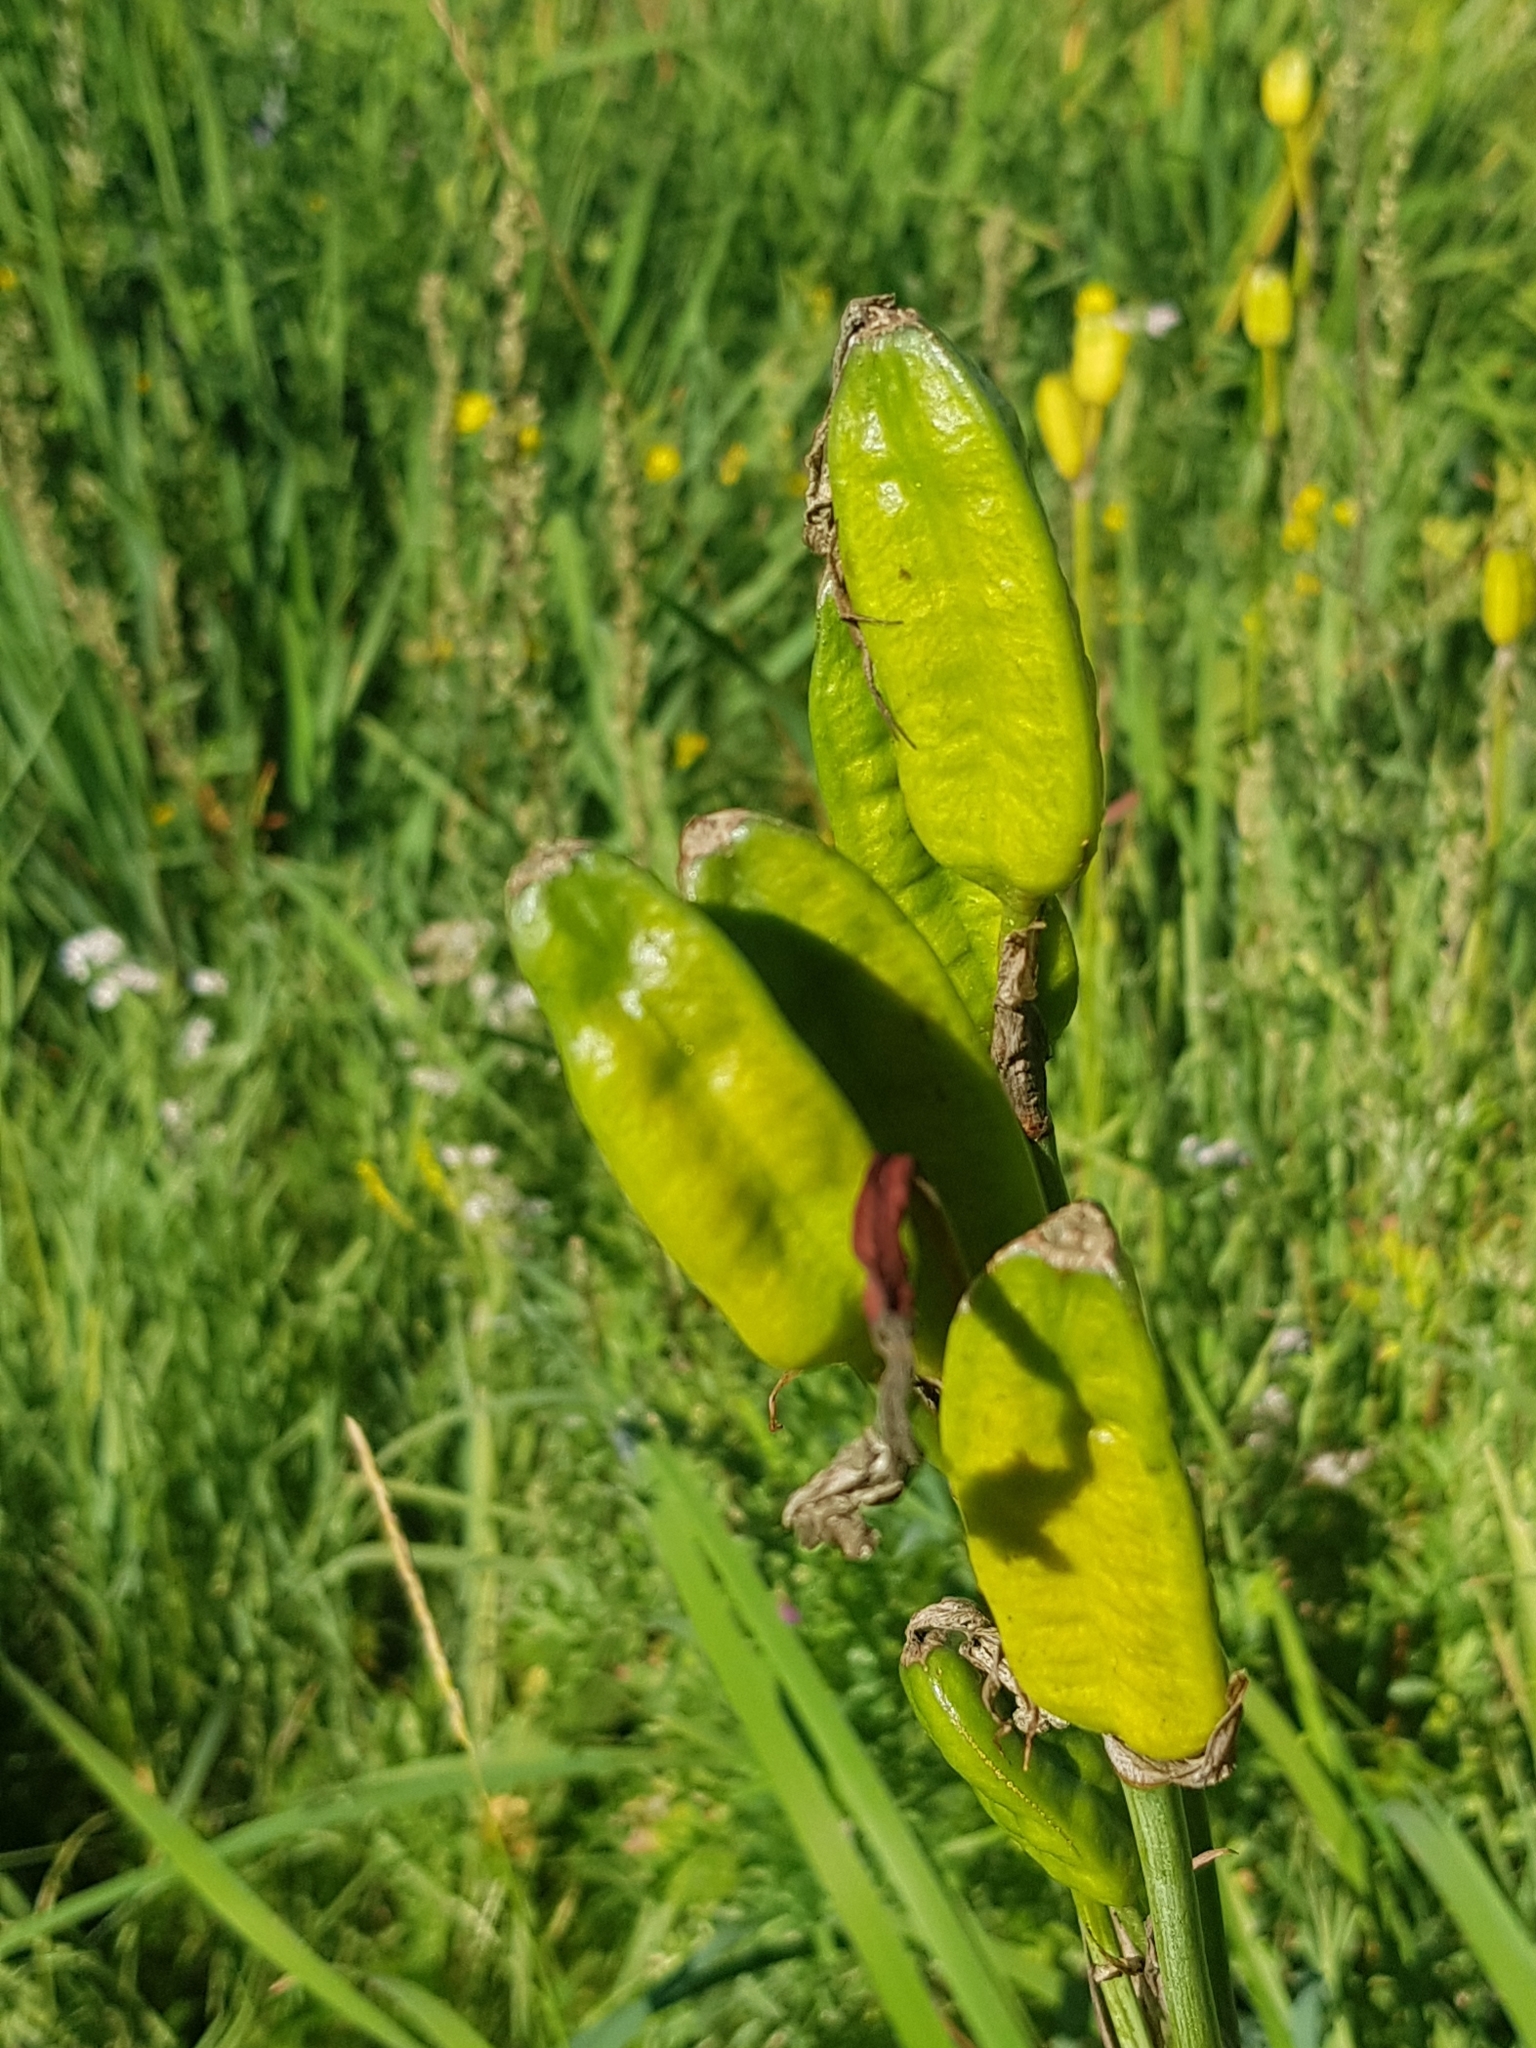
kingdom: Plantae
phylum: Tracheophyta
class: Liliopsida
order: Asparagales
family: Iridaceae
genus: Iris
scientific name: Iris sanguinea
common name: Blood iris
